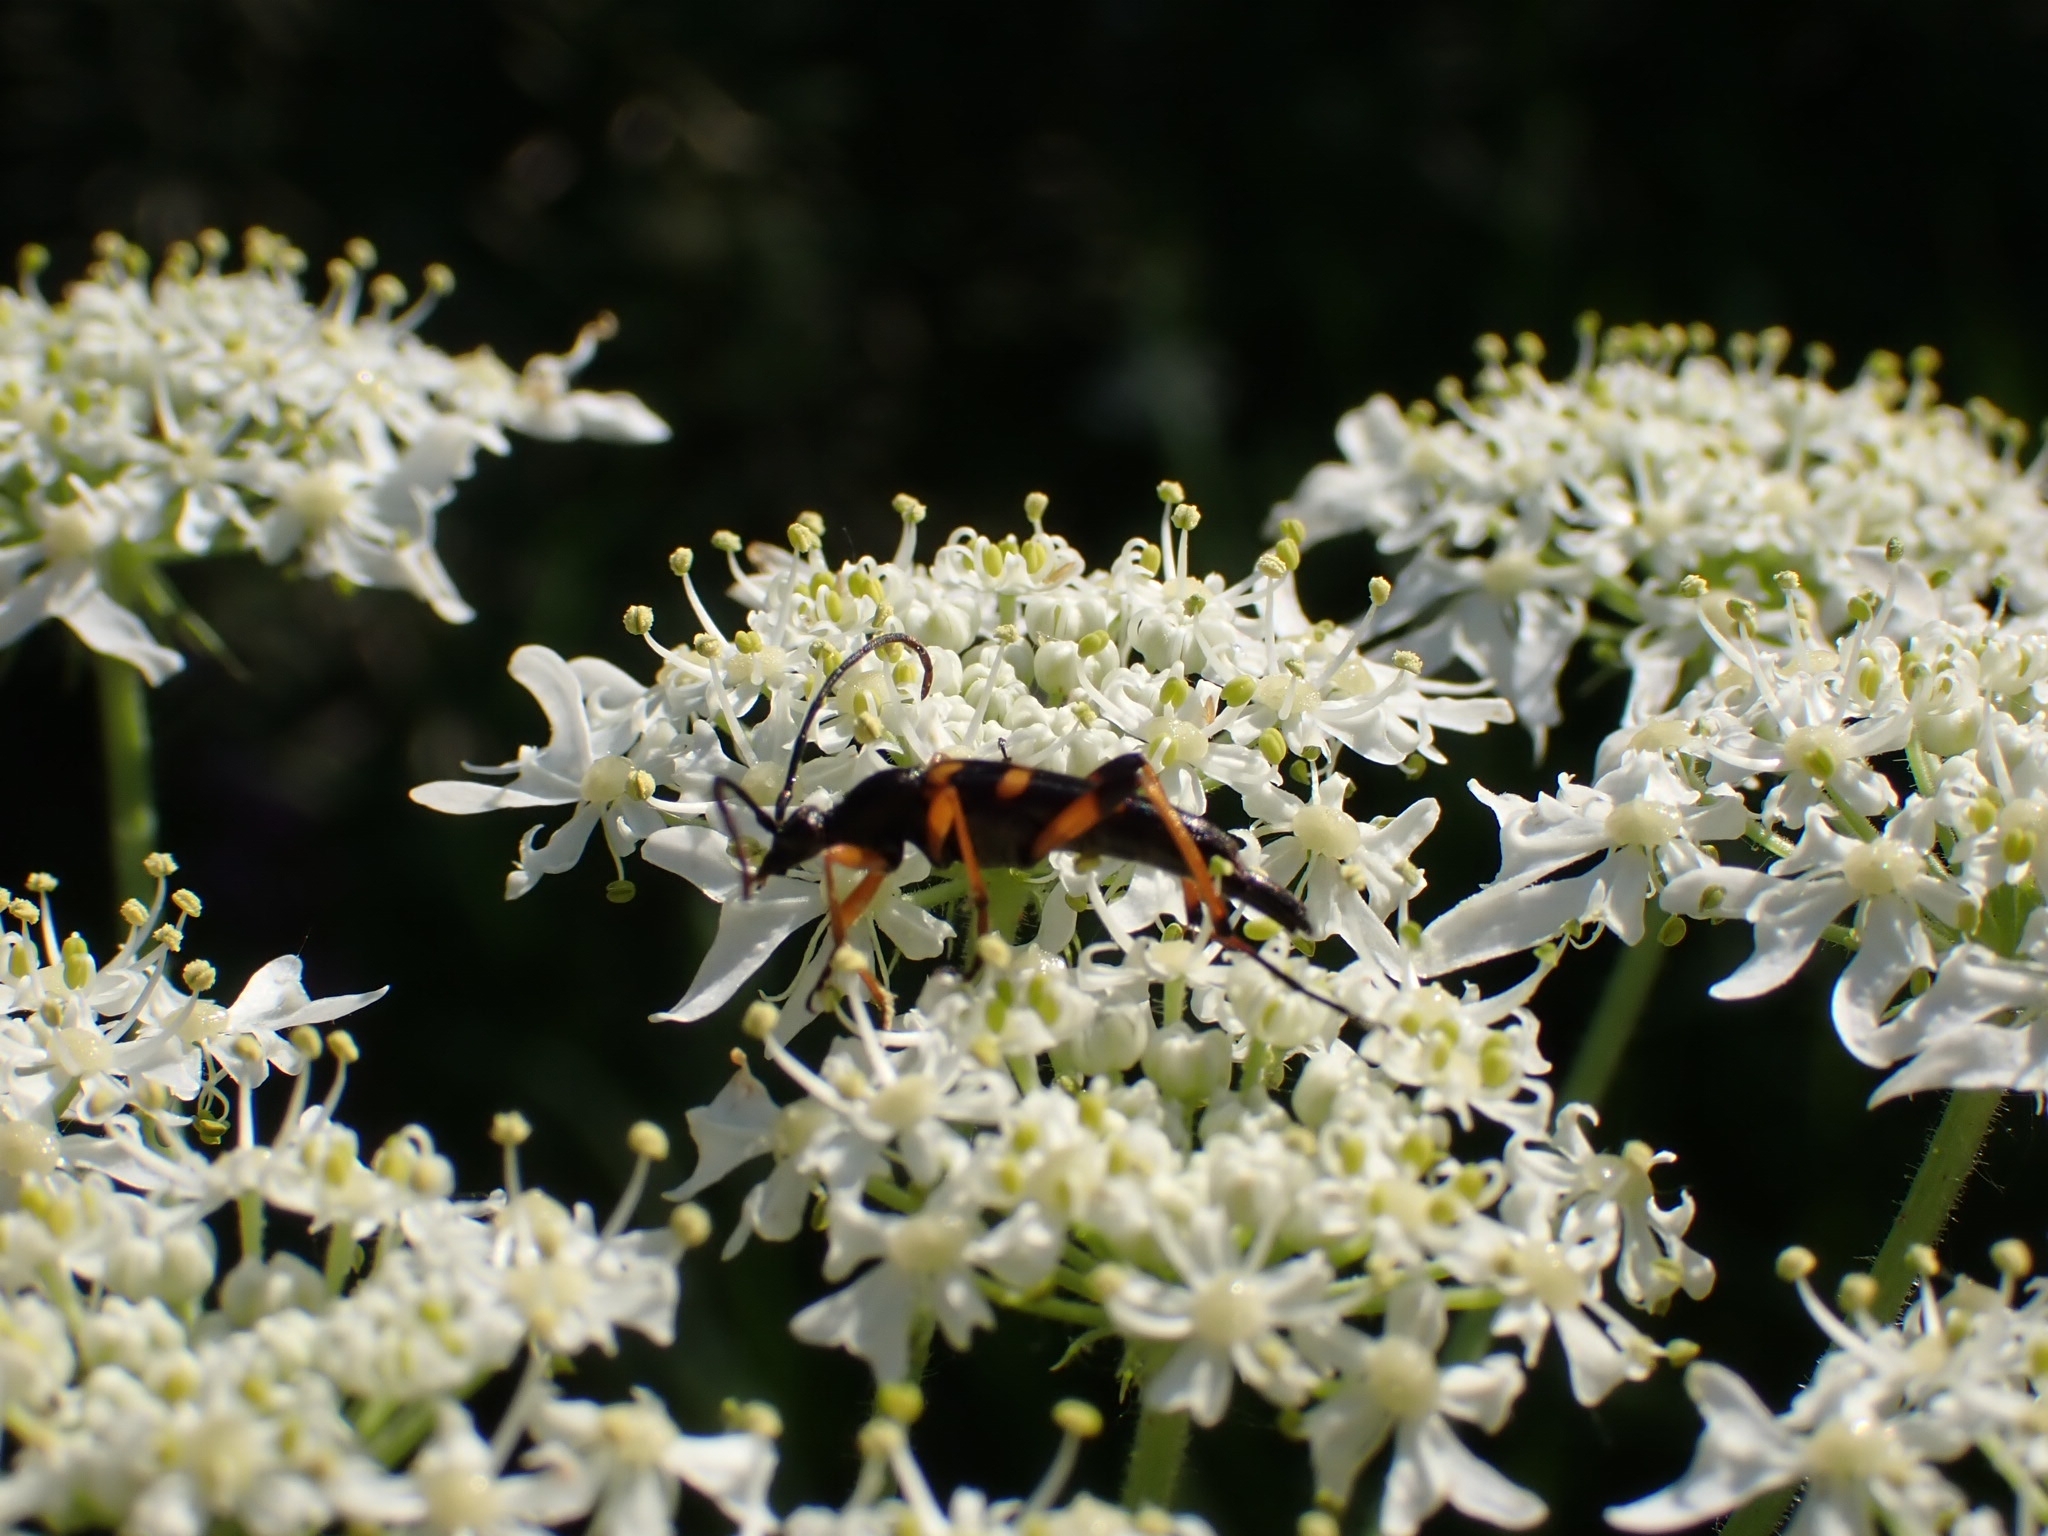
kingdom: Animalia
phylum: Arthropoda
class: Insecta
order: Coleoptera
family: Cerambycidae
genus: Strangalia
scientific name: Strangalia attenuata
